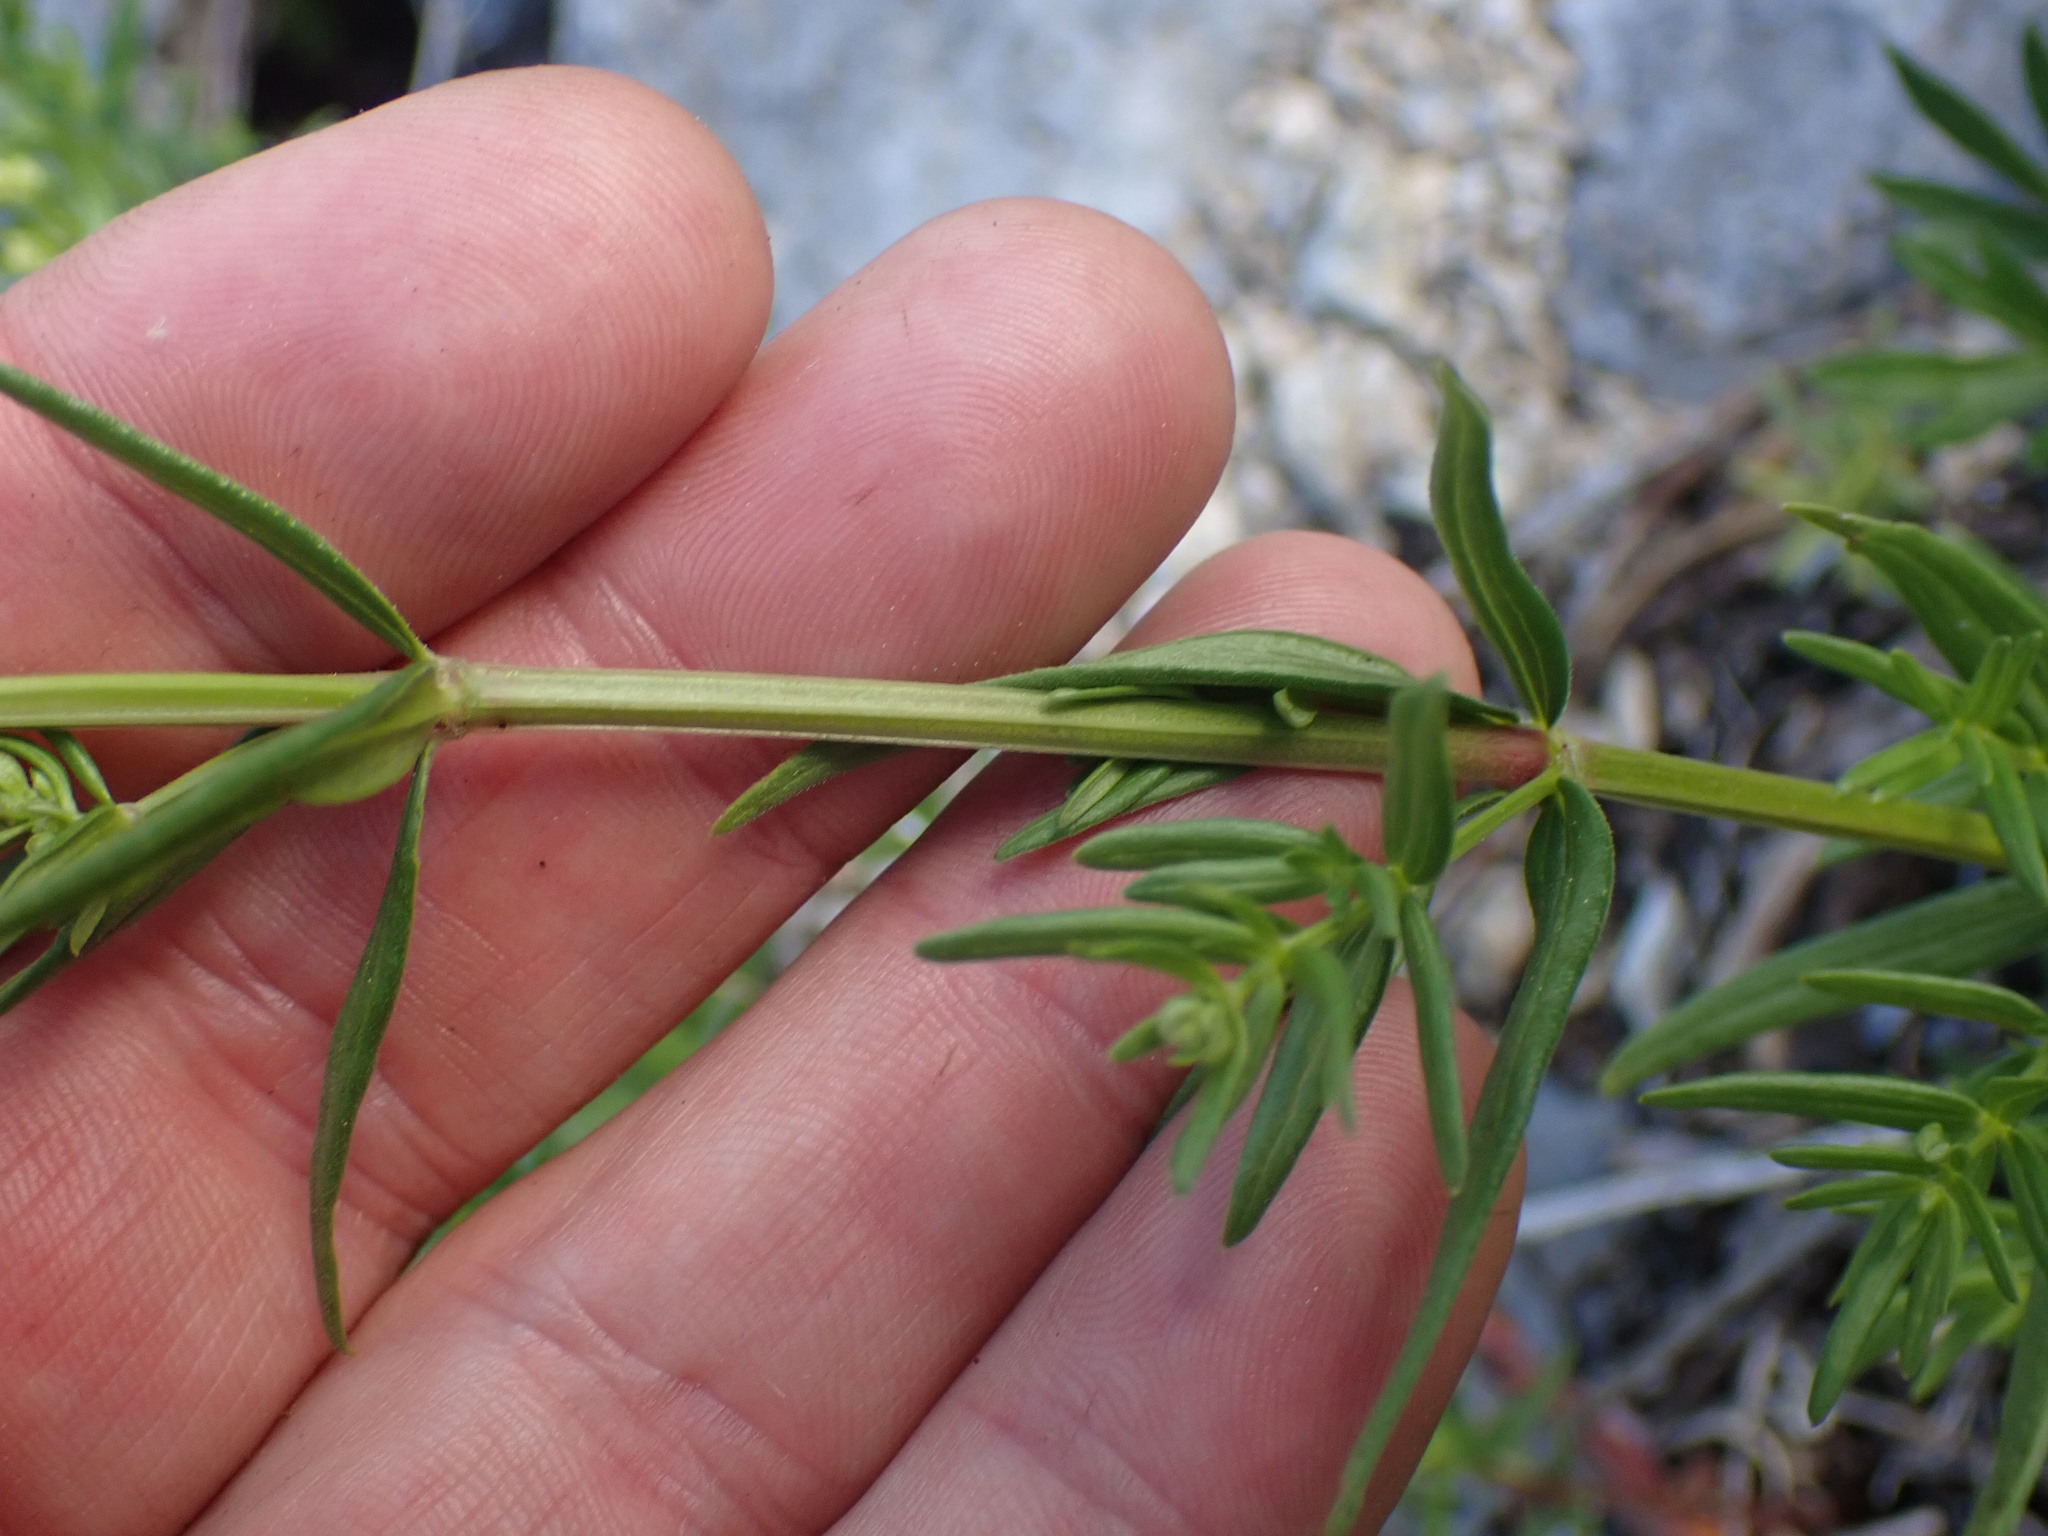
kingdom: Plantae
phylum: Tracheophyta
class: Magnoliopsida
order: Gentianales
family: Rubiaceae
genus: Galium
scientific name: Galium boreale
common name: Northern bedstraw
